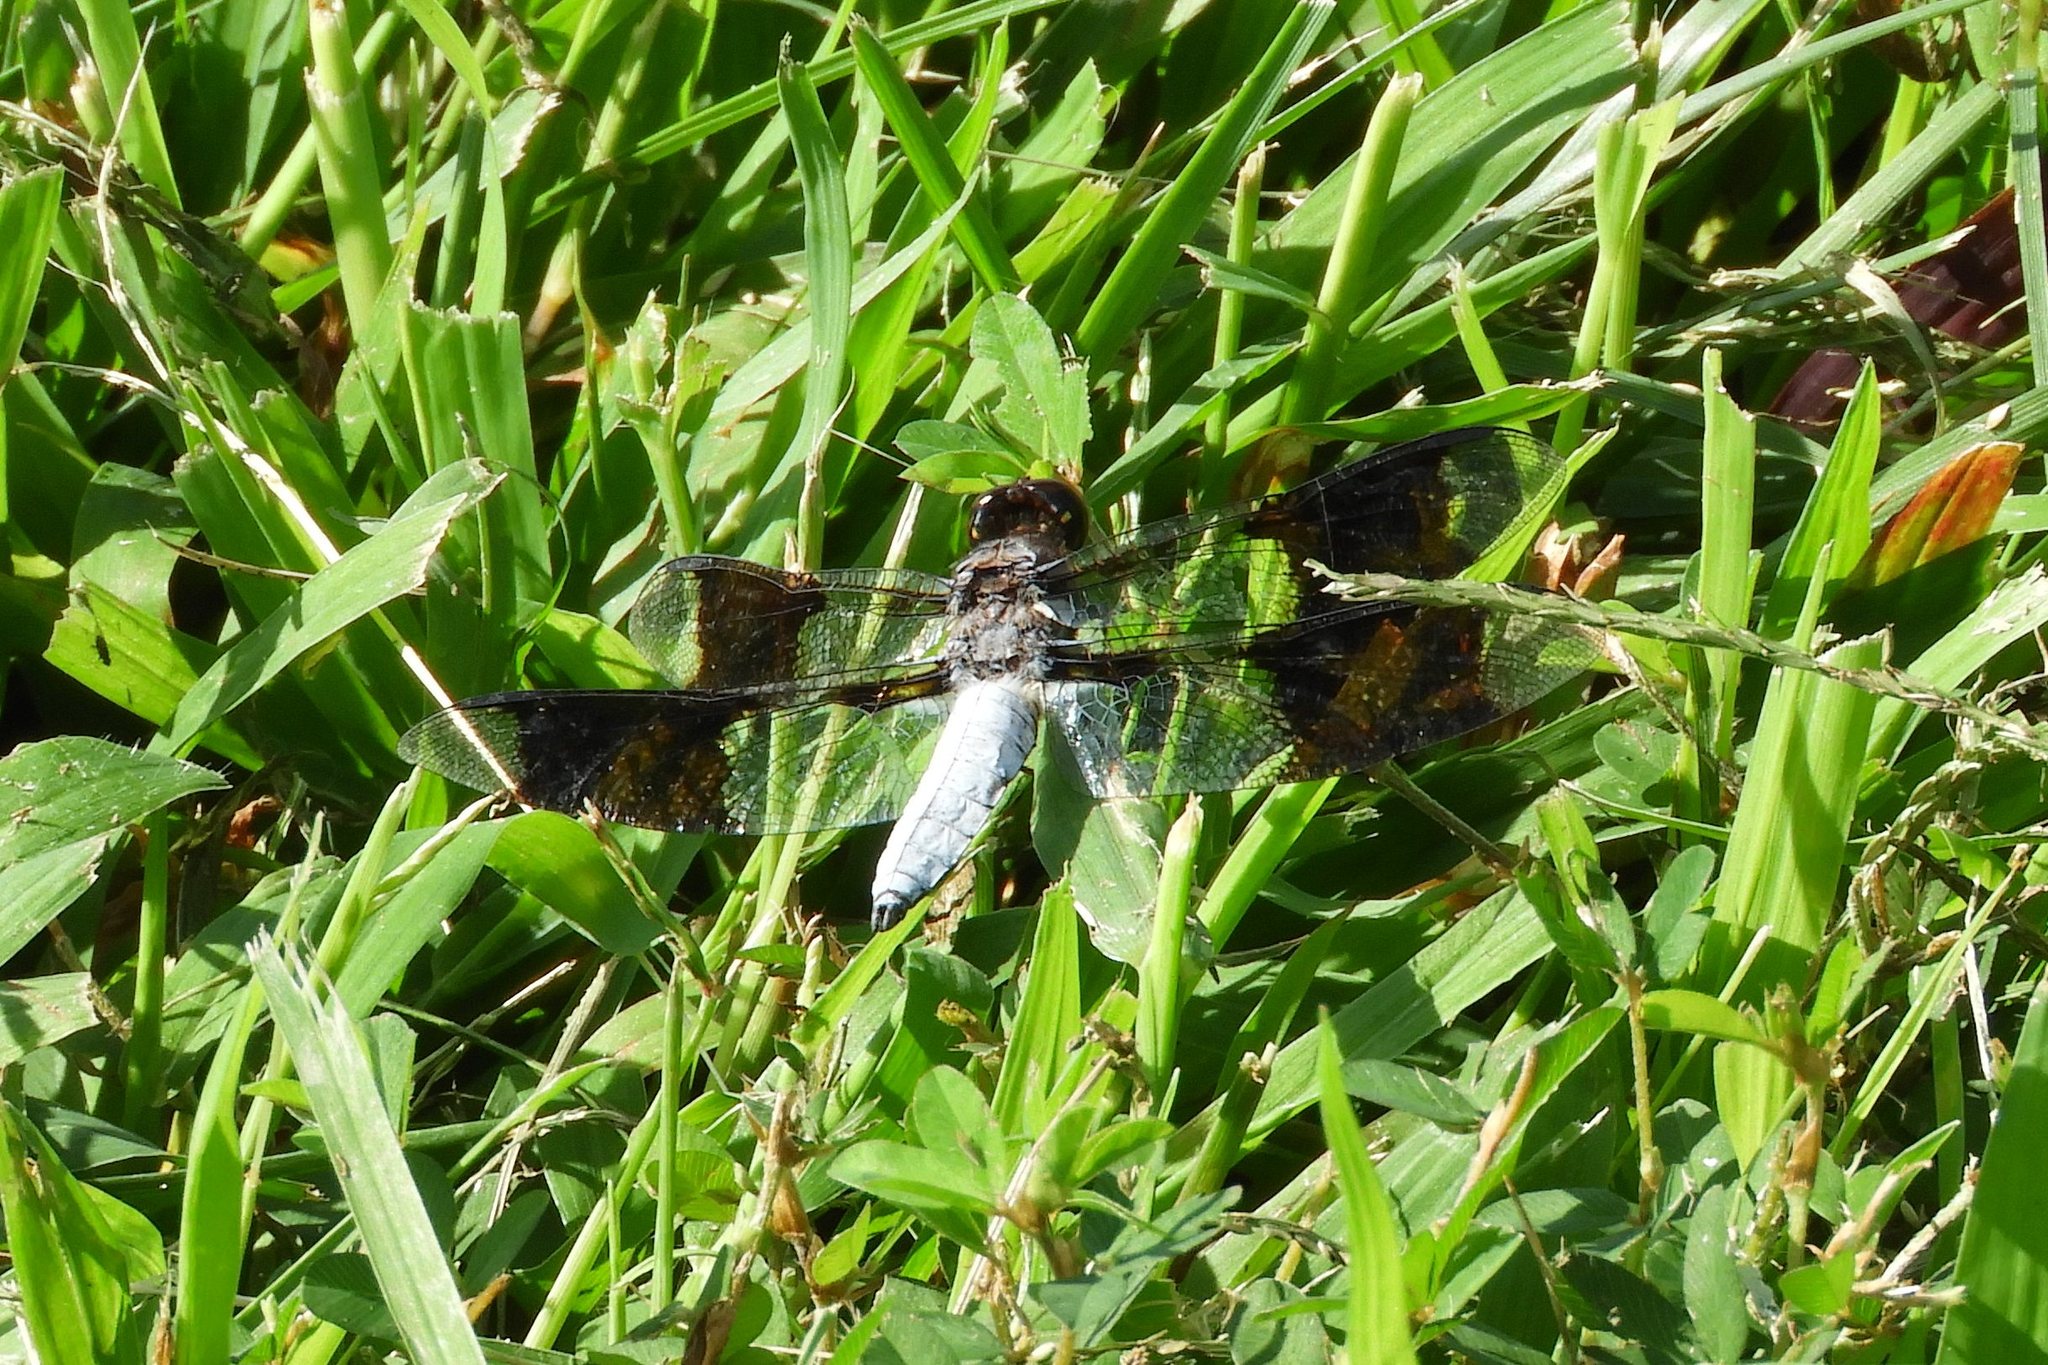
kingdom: Animalia
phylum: Arthropoda
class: Insecta
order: Odonata
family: Libellulidae
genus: Plathemis
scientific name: Plathemis lydia
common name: Common whitetail
